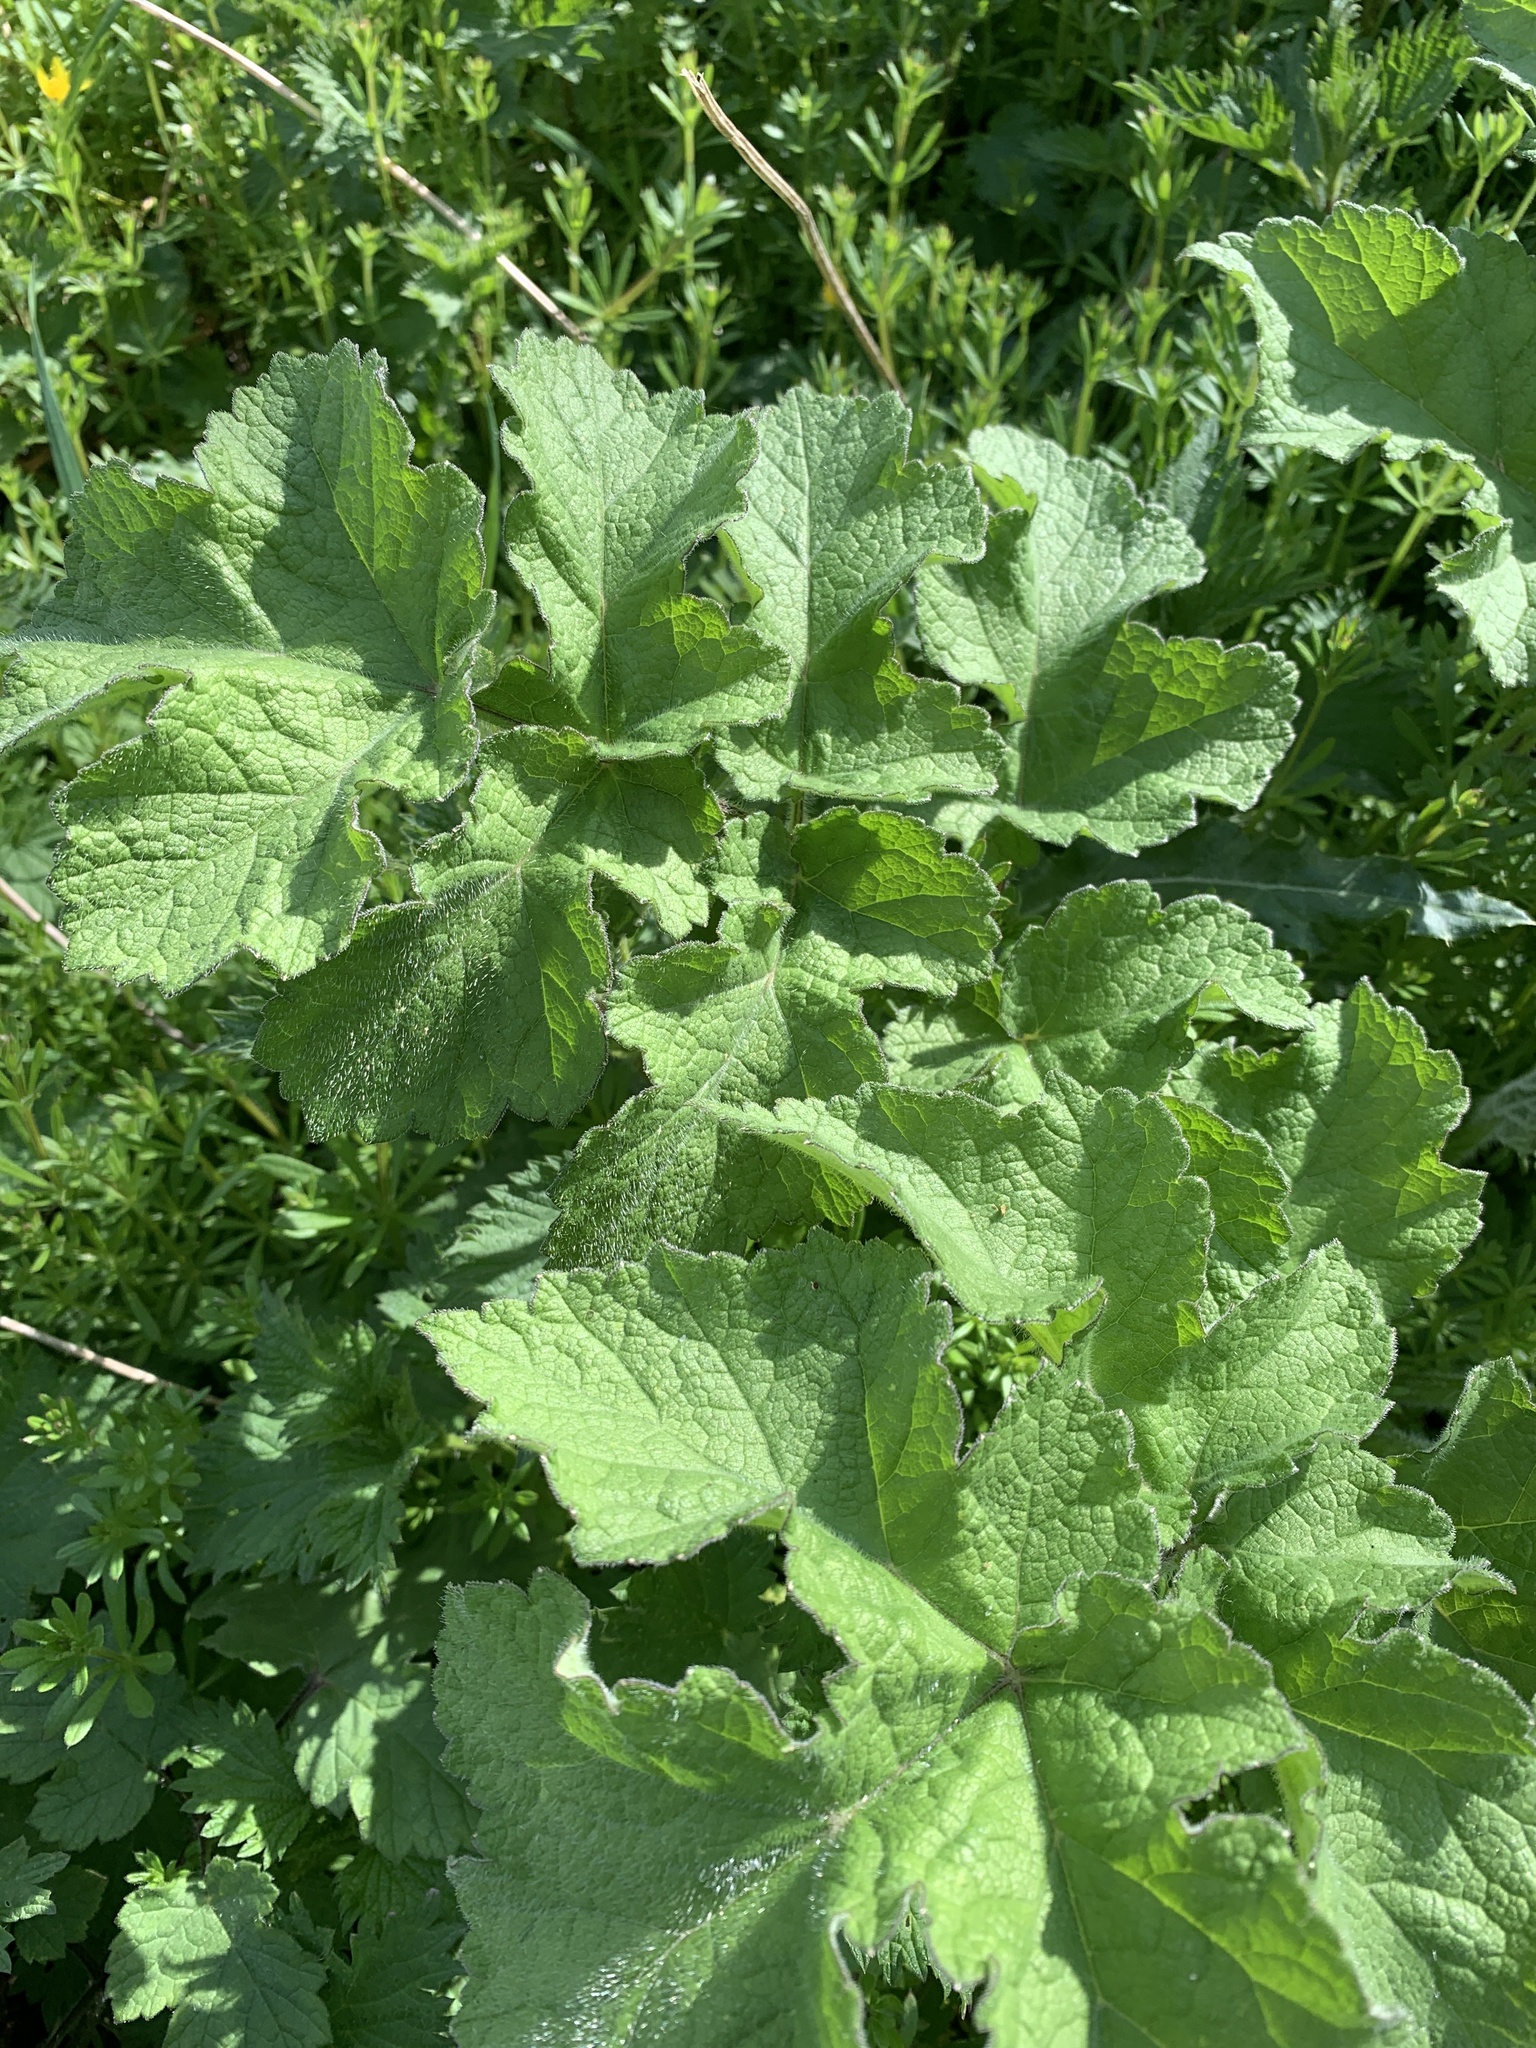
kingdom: Plantae
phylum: Tracheophyta
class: Magnoliopsida
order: Apiales
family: Apiaceae
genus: Heracleum
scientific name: Heracleum sphondylium
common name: Hogweed
